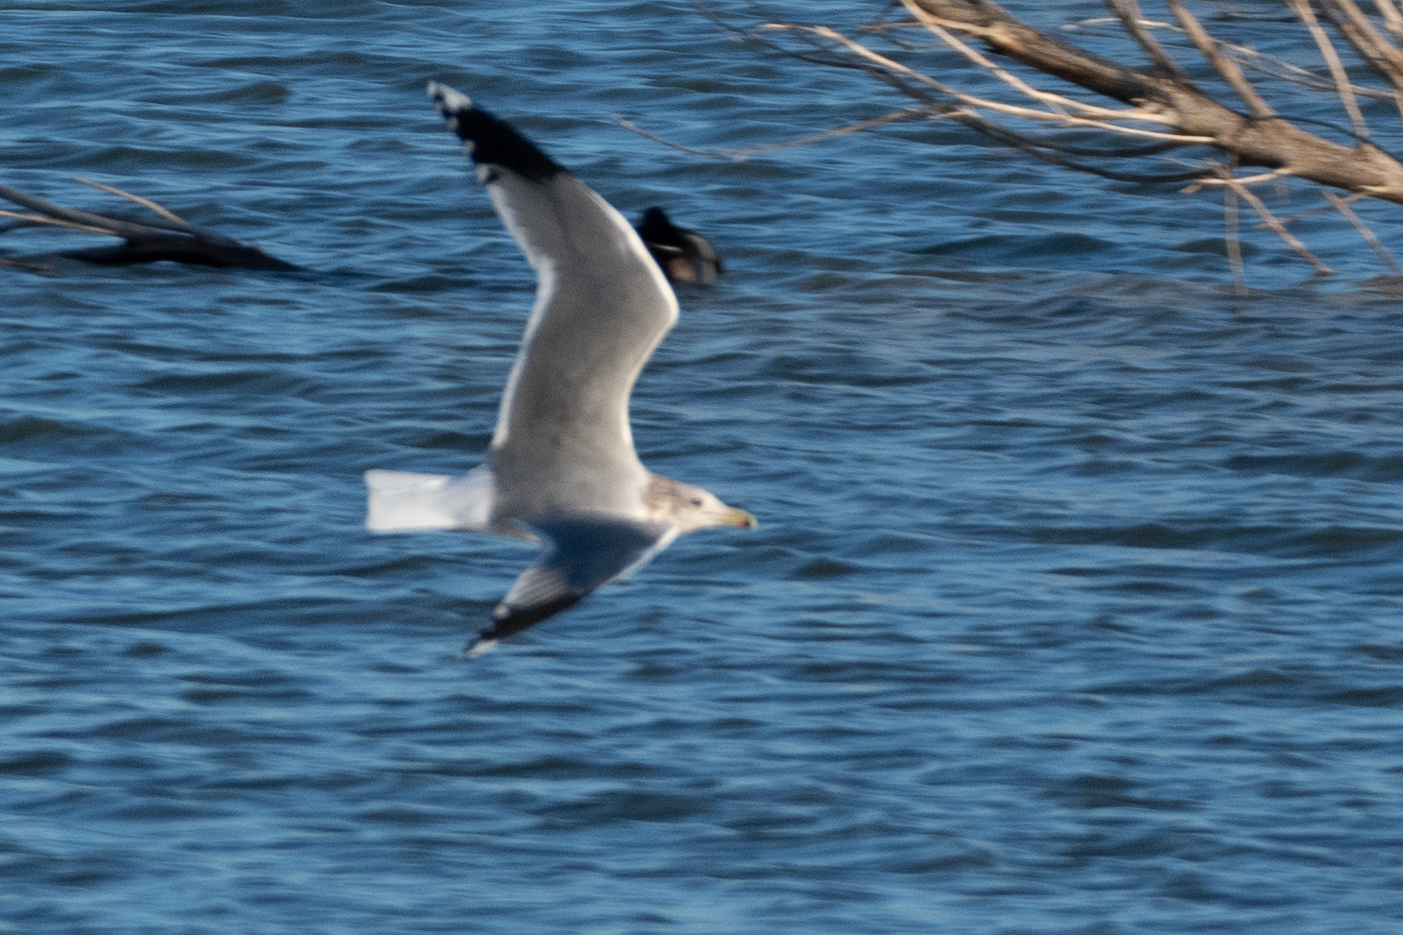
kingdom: Animalia
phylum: Chordata
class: Aves
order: Charadriiformes
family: Laridae
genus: Larus
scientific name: Larus californicus
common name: California gull
